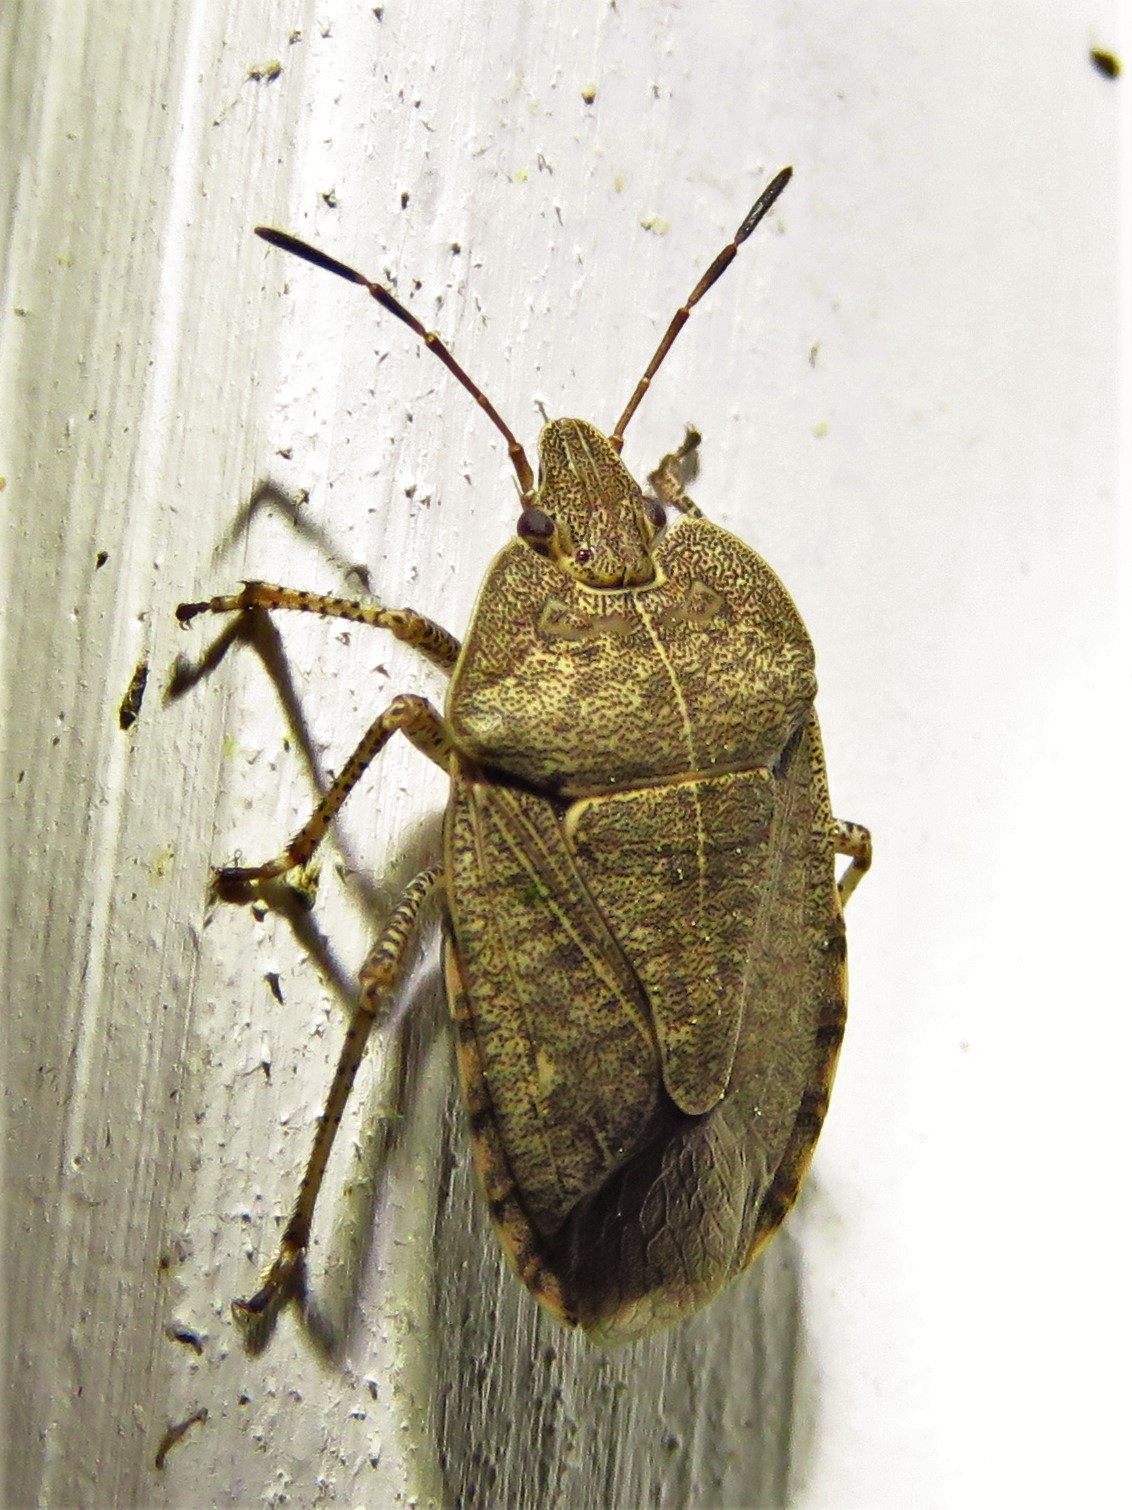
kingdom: Animalia
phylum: Arthropoda
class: Insecta
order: Hemiptera
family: Pentatomidae
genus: Menecles
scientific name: Menecles insertus
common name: Elf shoe stink bug
